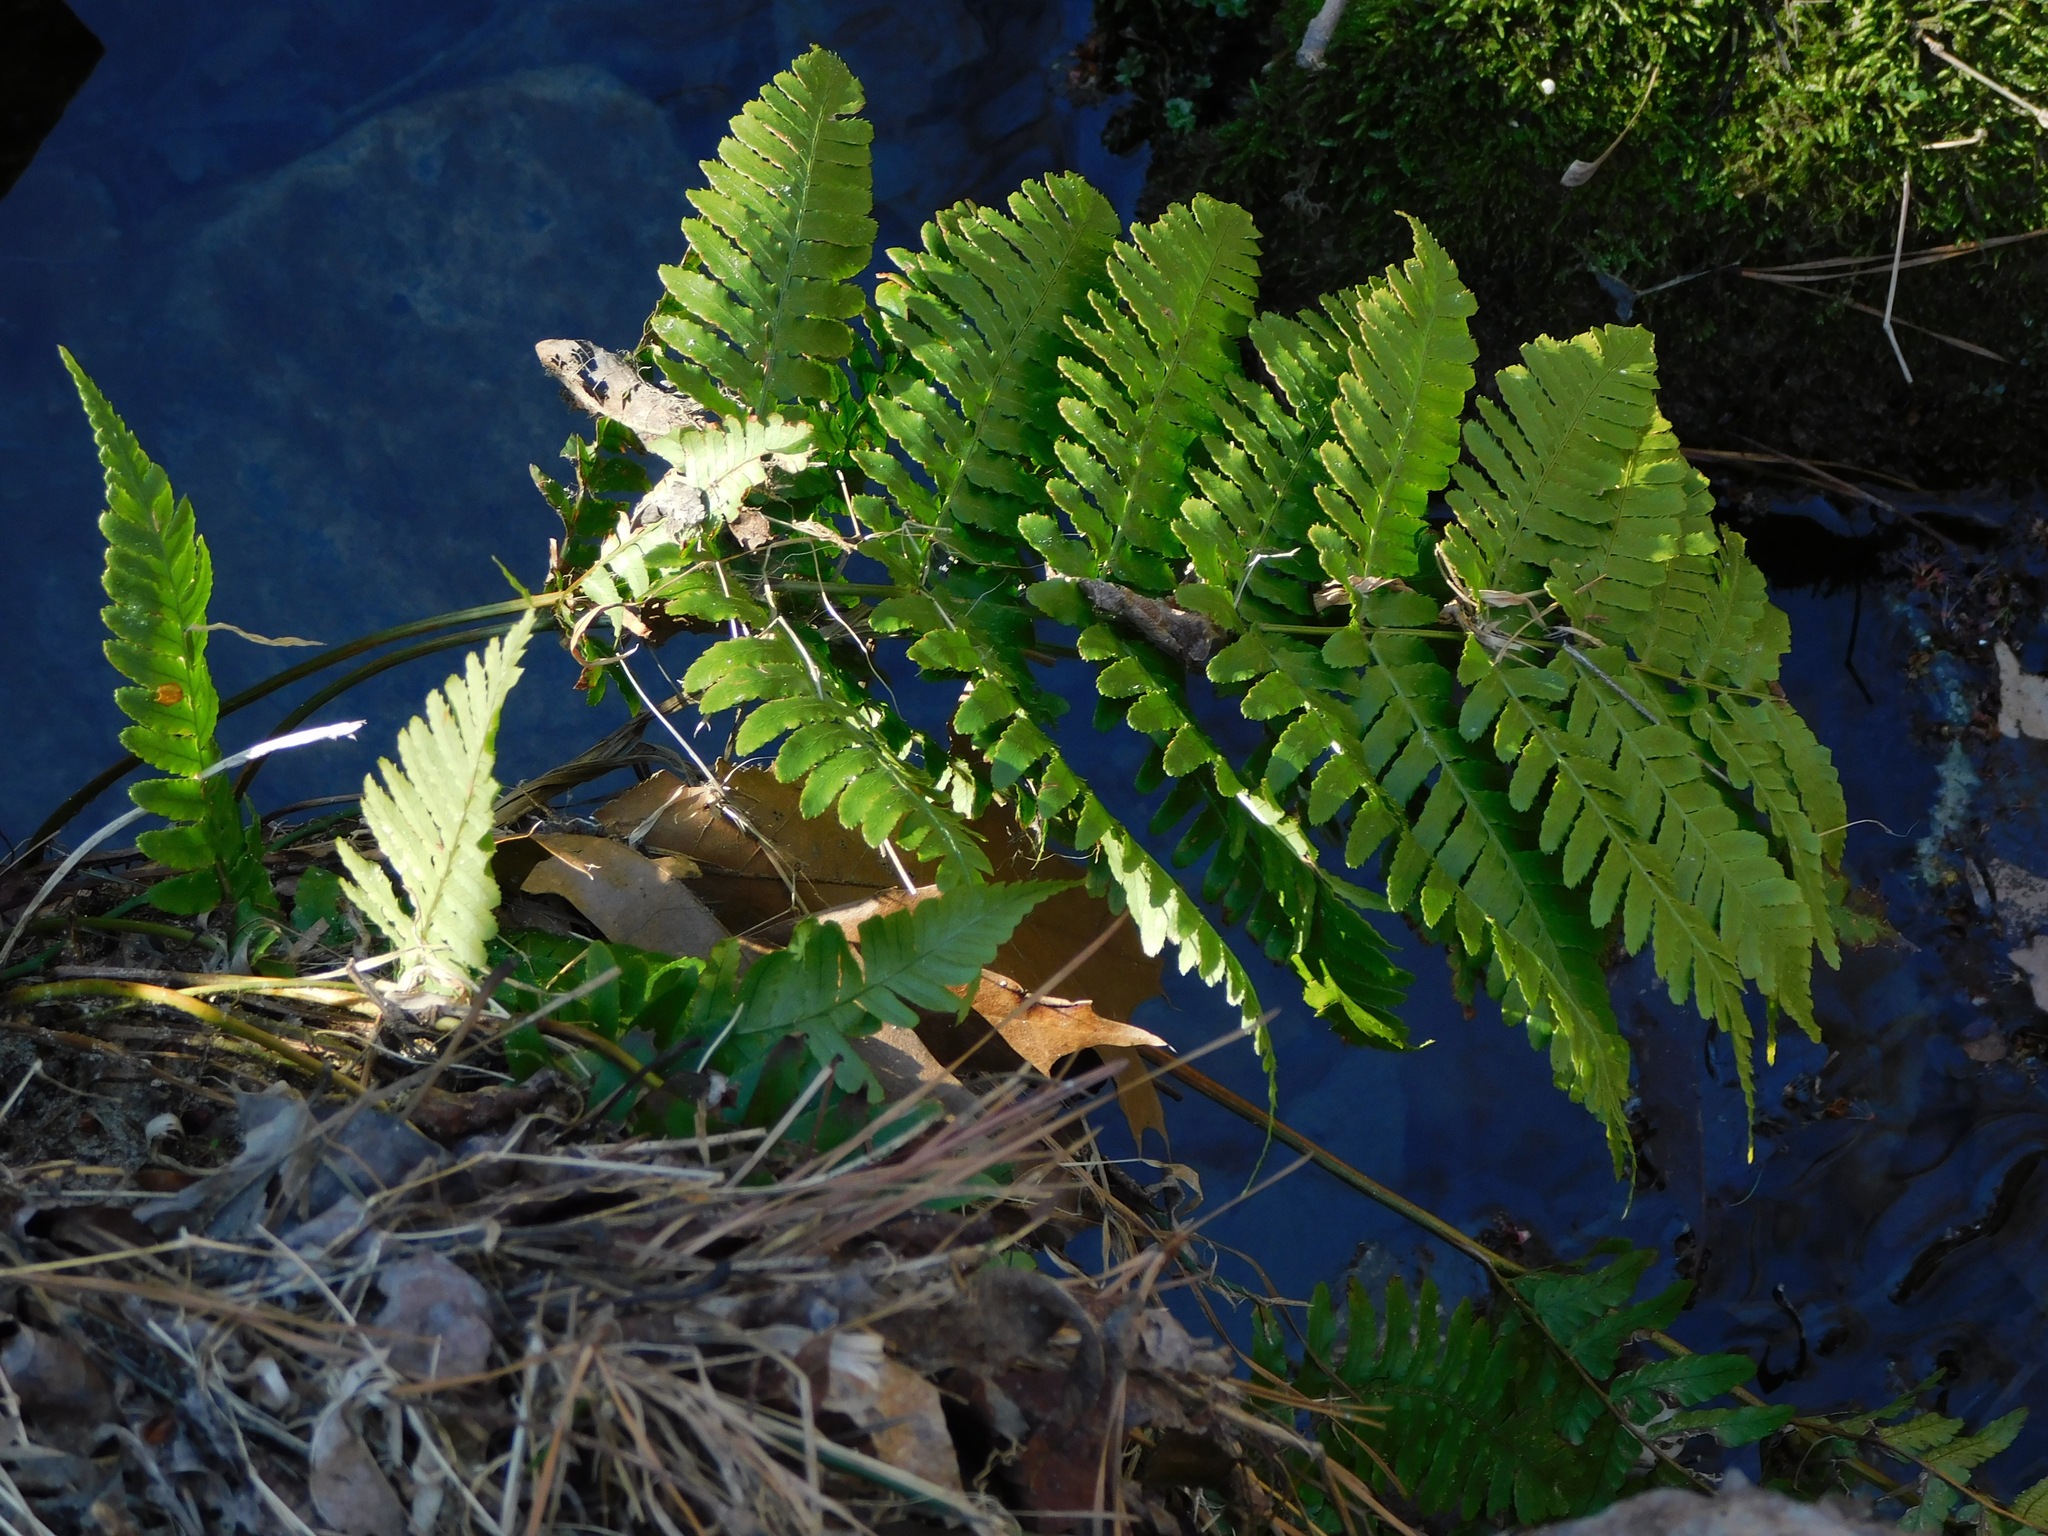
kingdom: Plantae
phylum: Tracheophyta
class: Polypodiopsida
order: Polypodiales
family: Dryopteridaceae
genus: Dryopteris
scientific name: Dryopteris erythrosora
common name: Autumn fern
